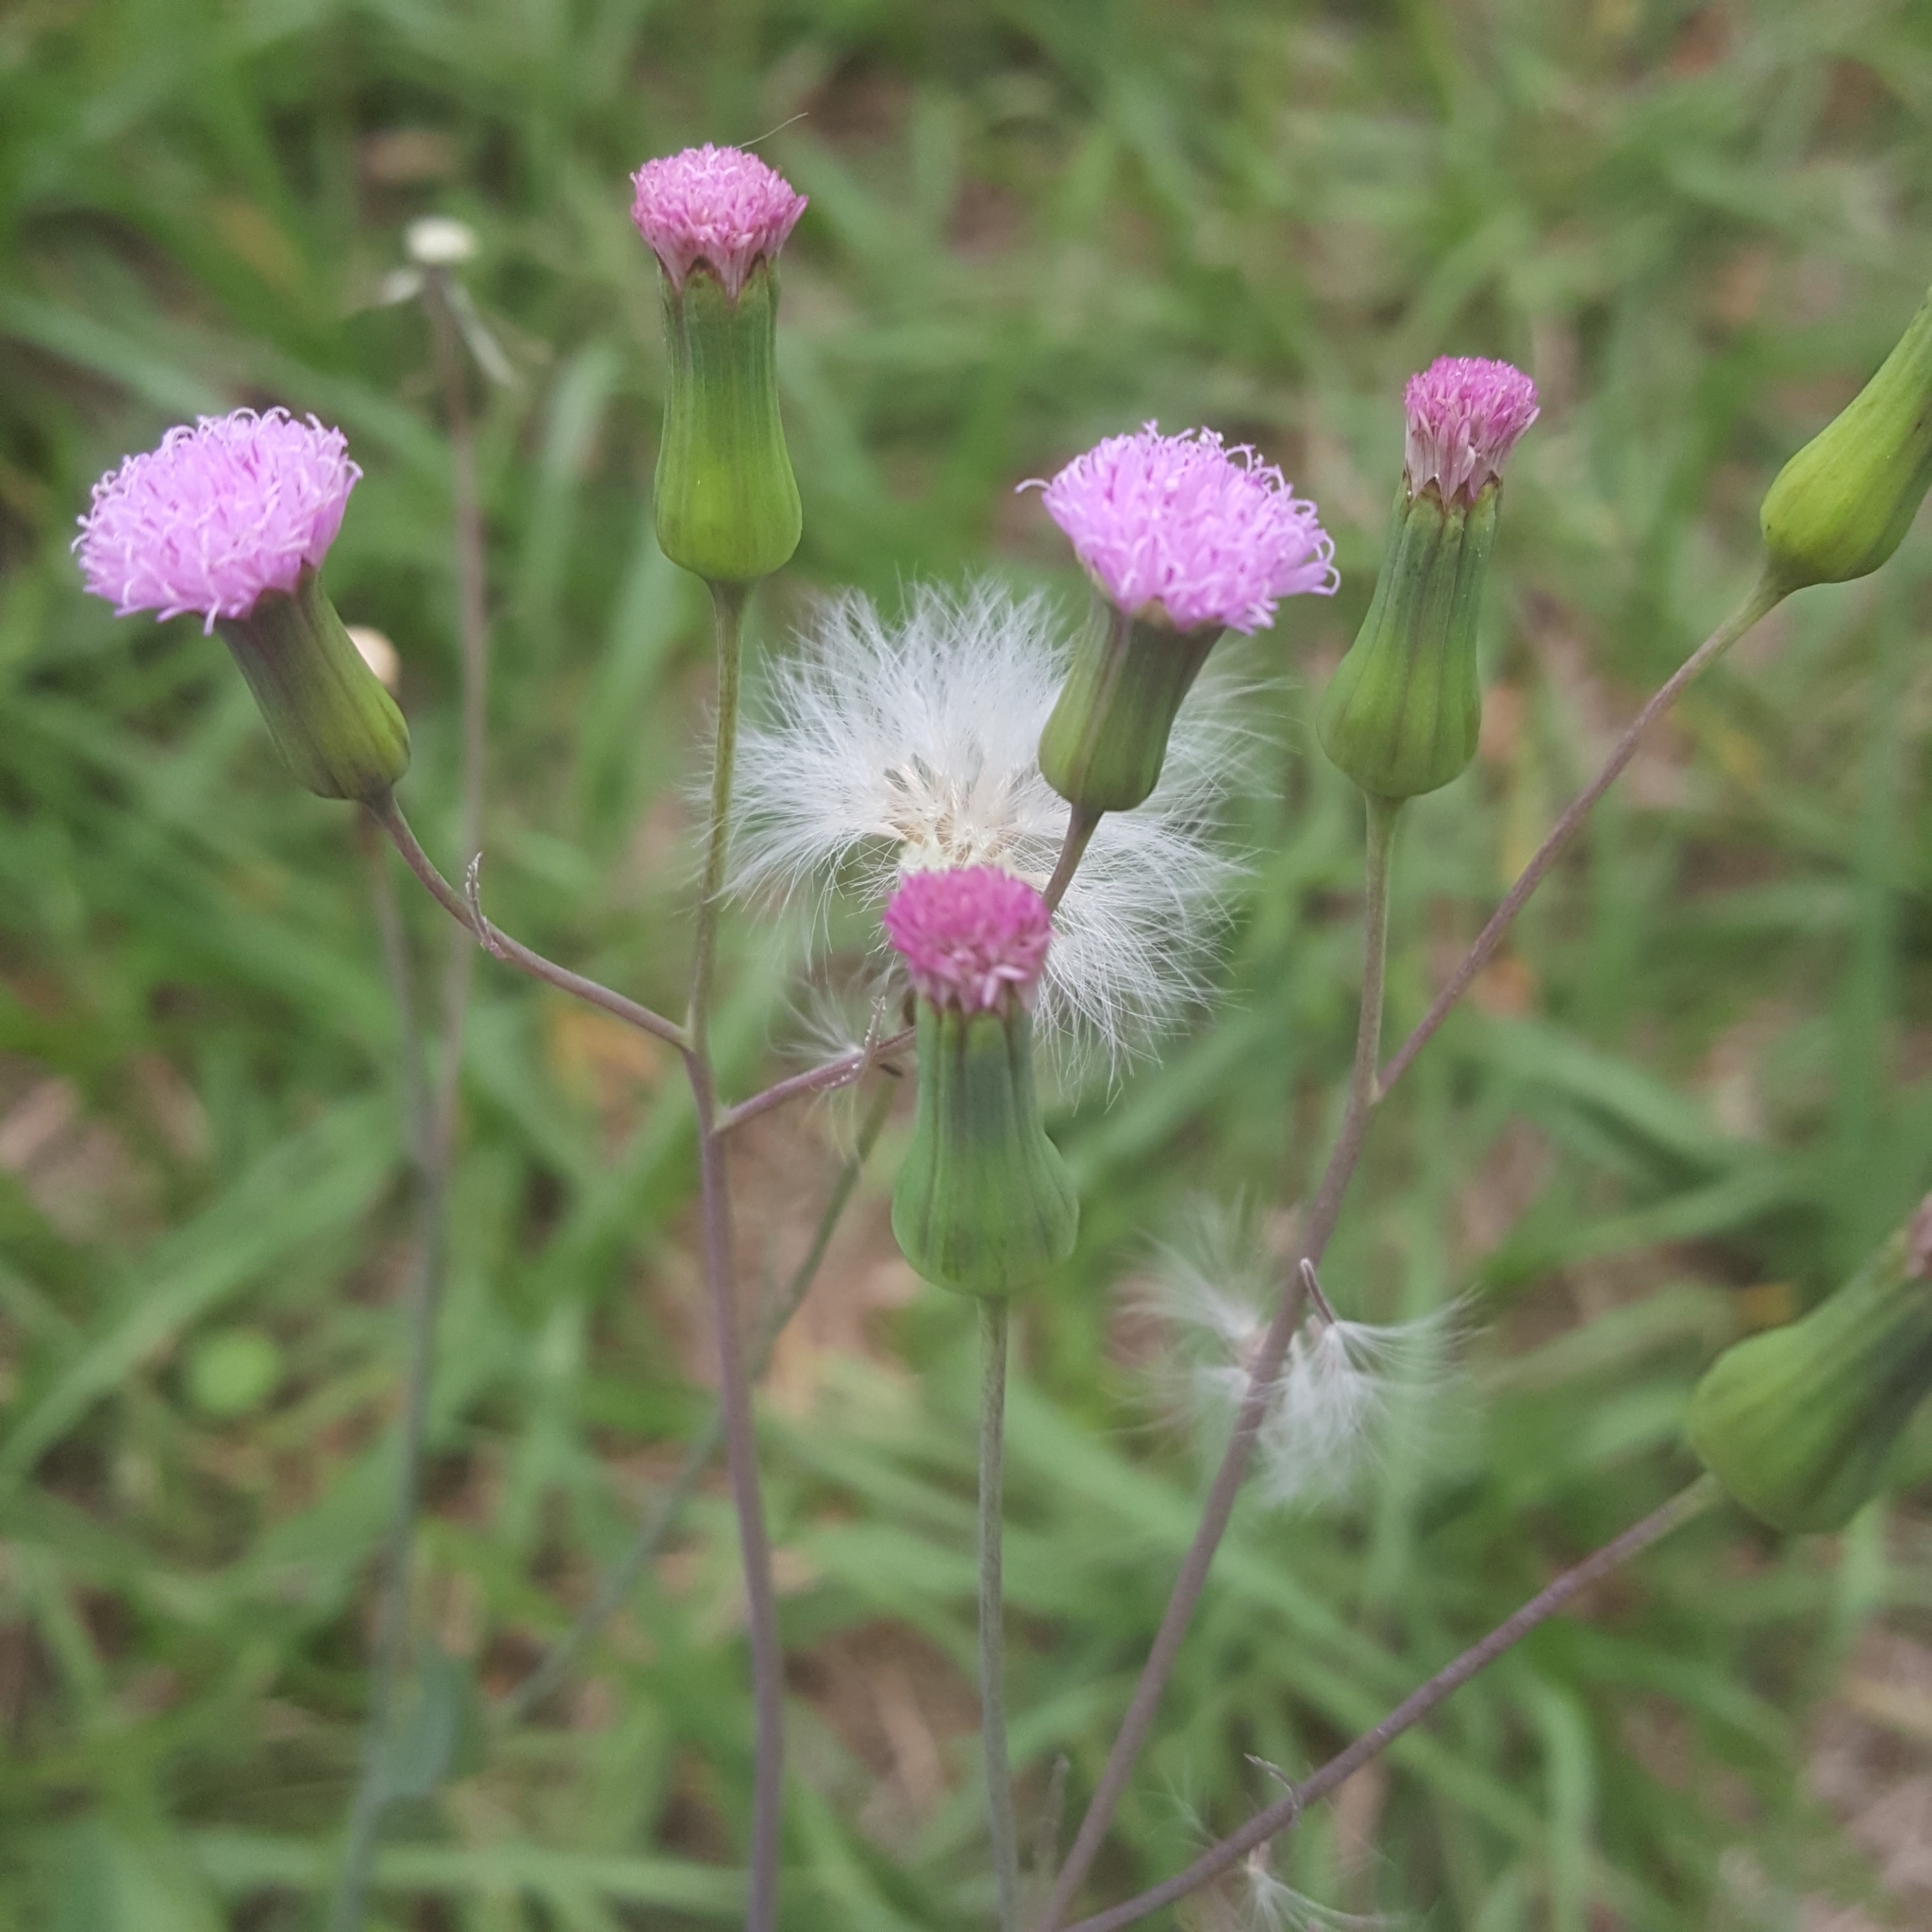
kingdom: Plantae
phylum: Tracheophyta
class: Magnoliopsida
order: Asterales
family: Asteraceae
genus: Emilia
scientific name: Emilia sonchifolia
